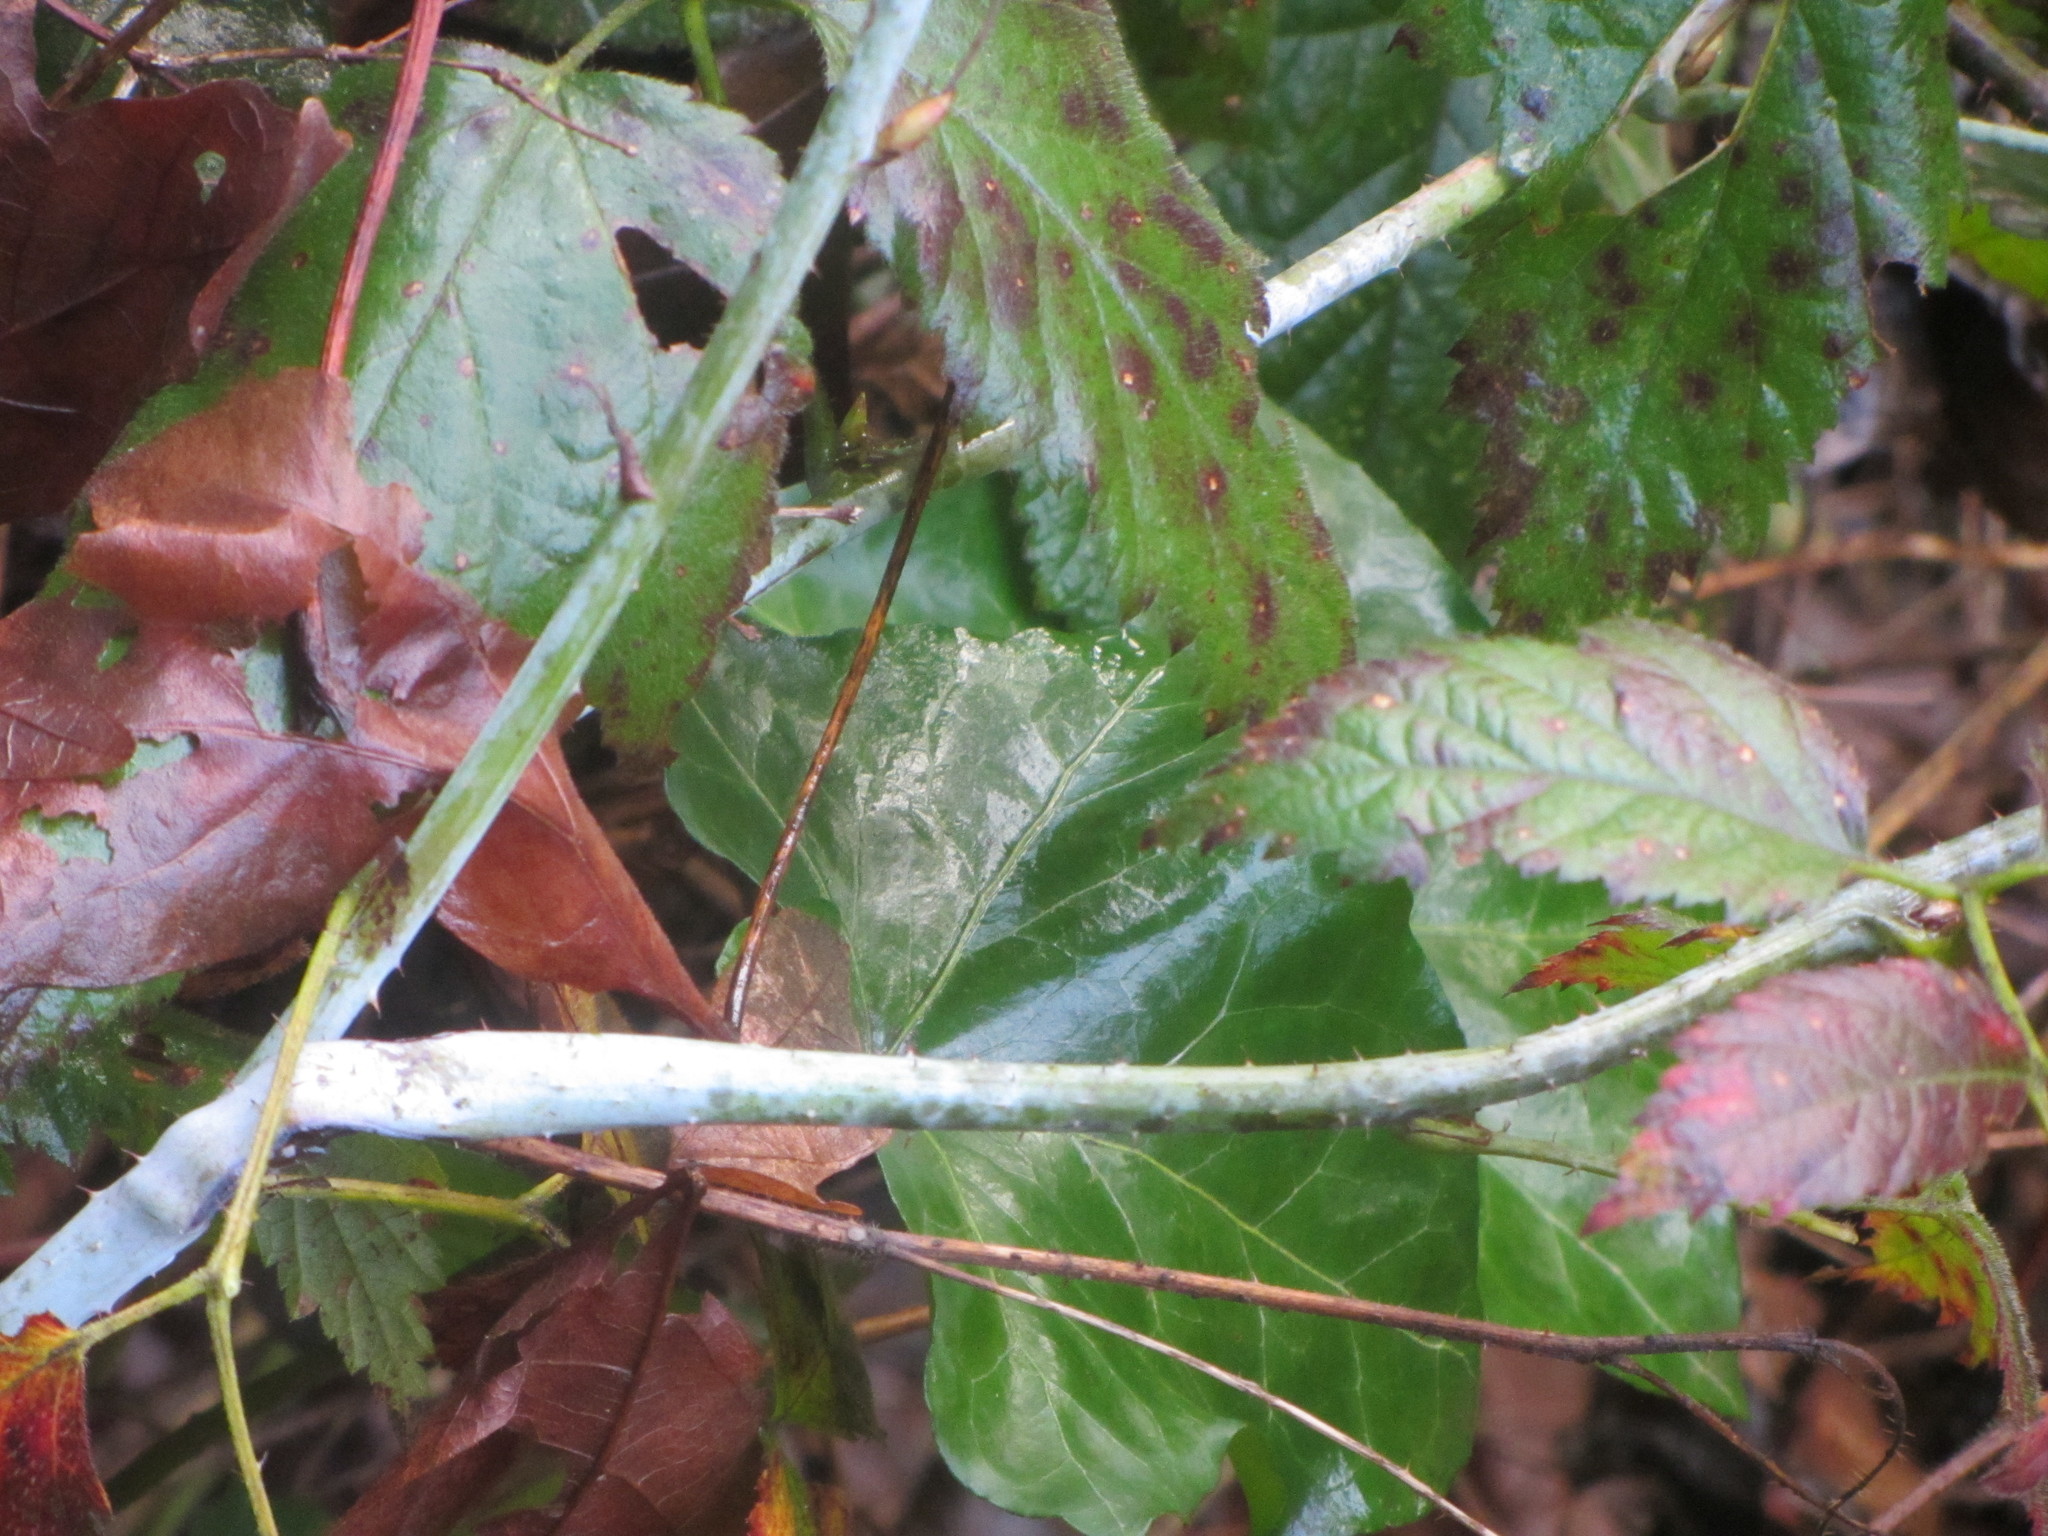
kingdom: Plantae
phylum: Tracheophyta
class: Magnoliopsida
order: Rosales
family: Rosaceae
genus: Rubus
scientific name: Rubus ursinus
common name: Pacific blackberry
